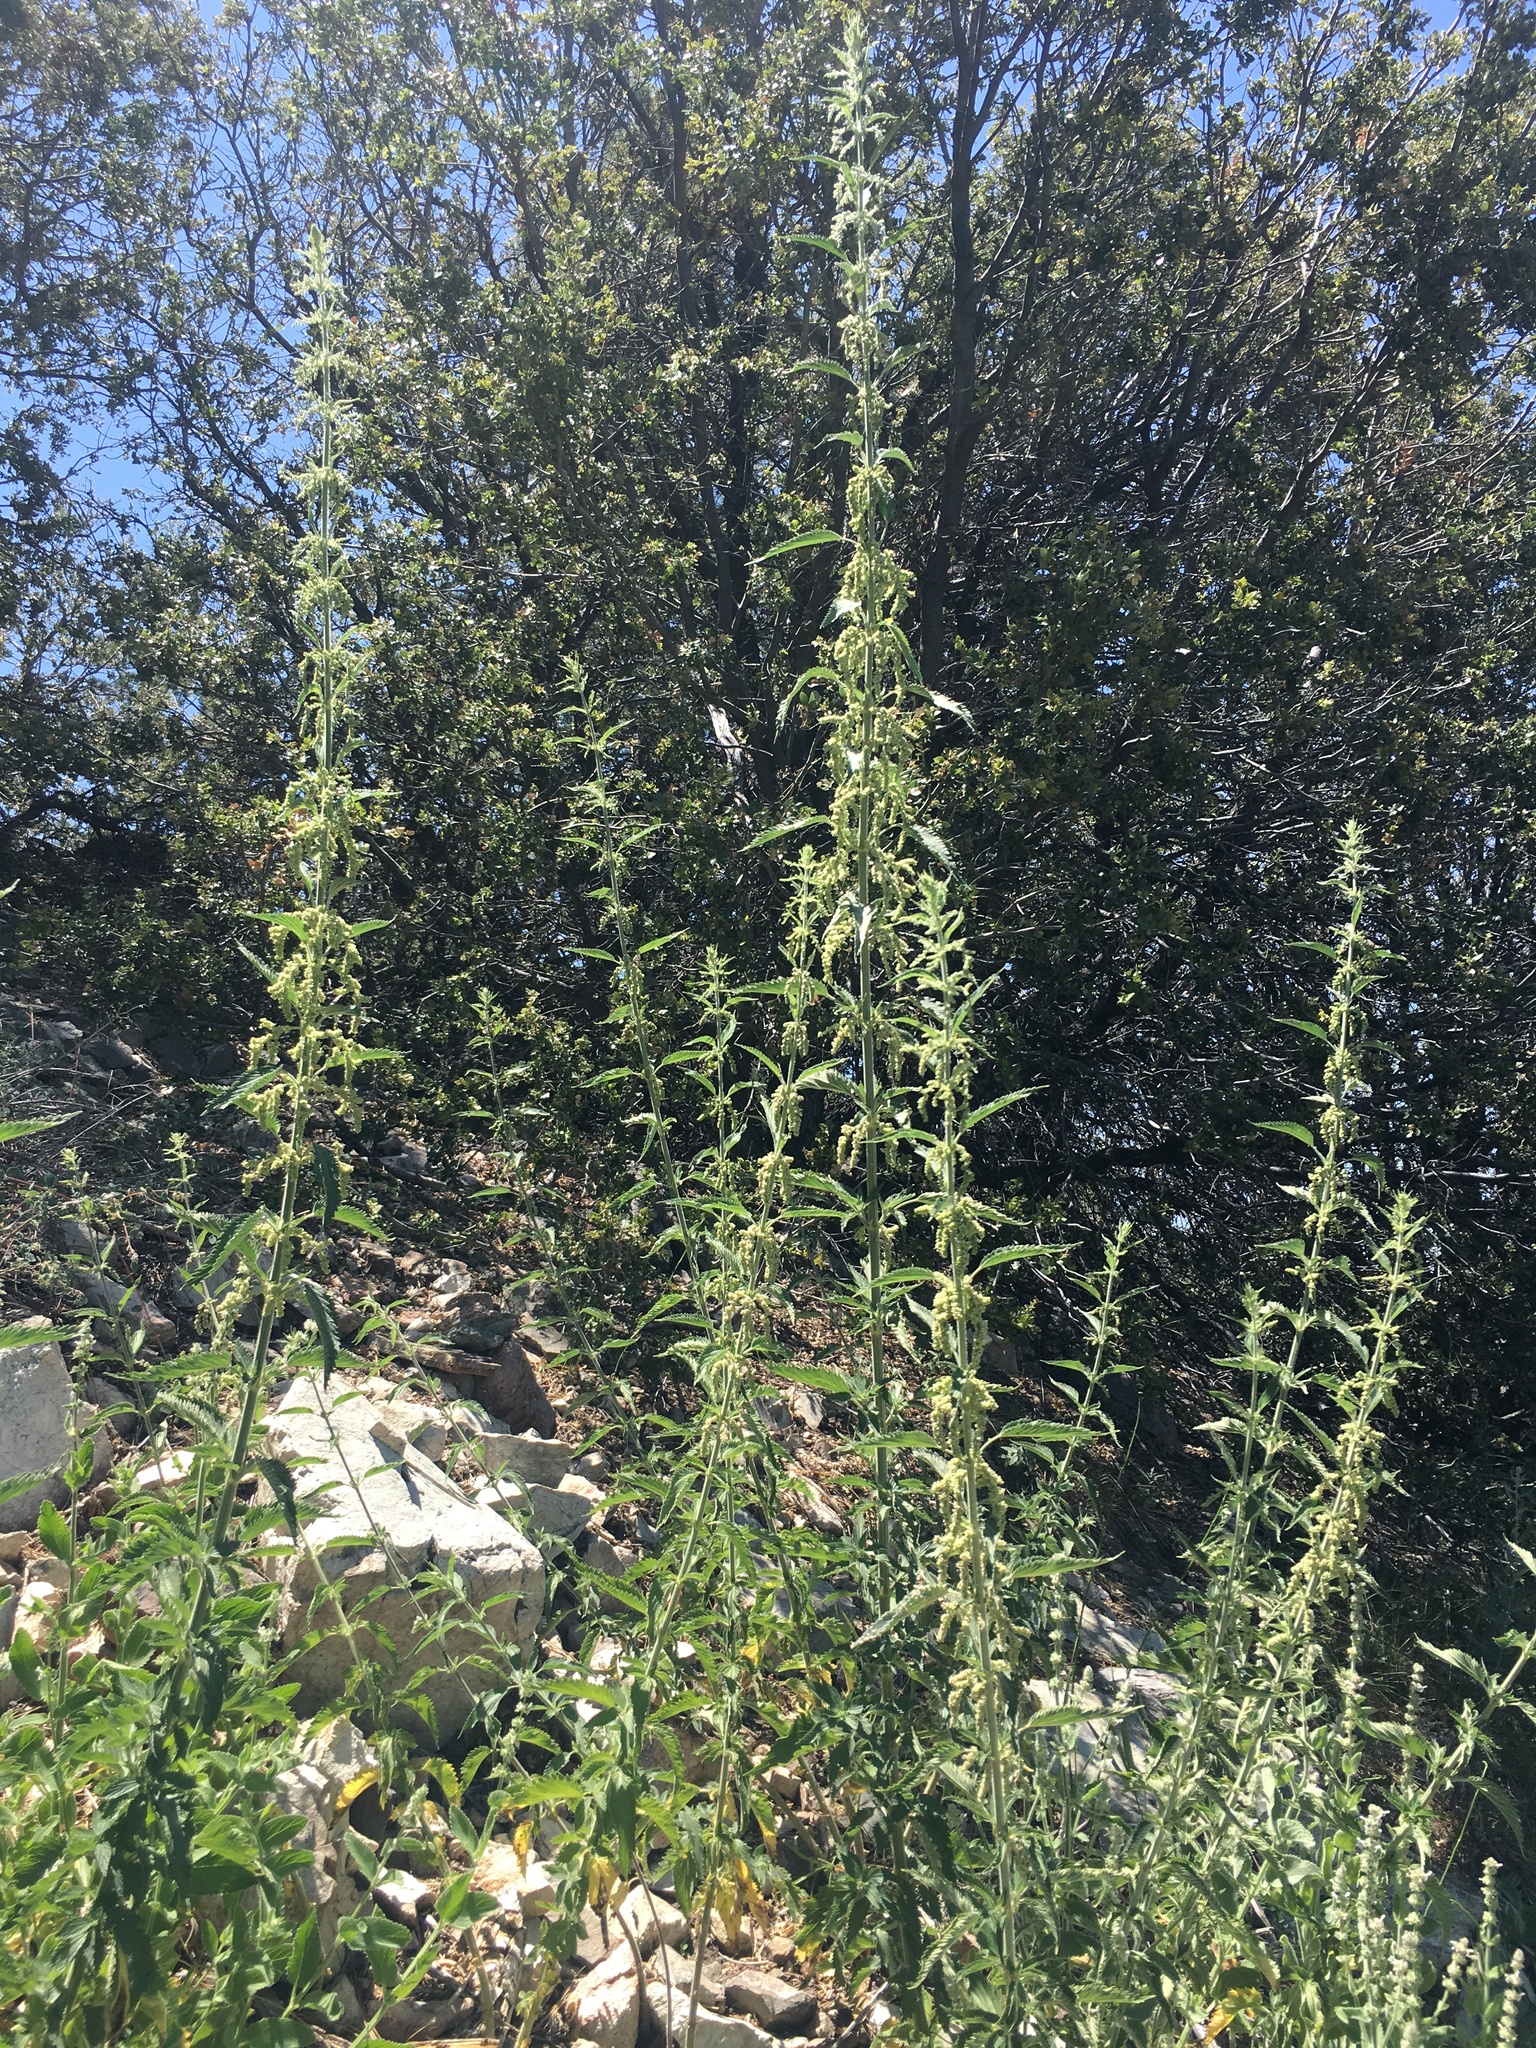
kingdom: Plantae
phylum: Tracheophyta
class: Magnoliopsida
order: Rosales
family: Urticaceae
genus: Urtica
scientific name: Urtica dioica
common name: Common nettle
